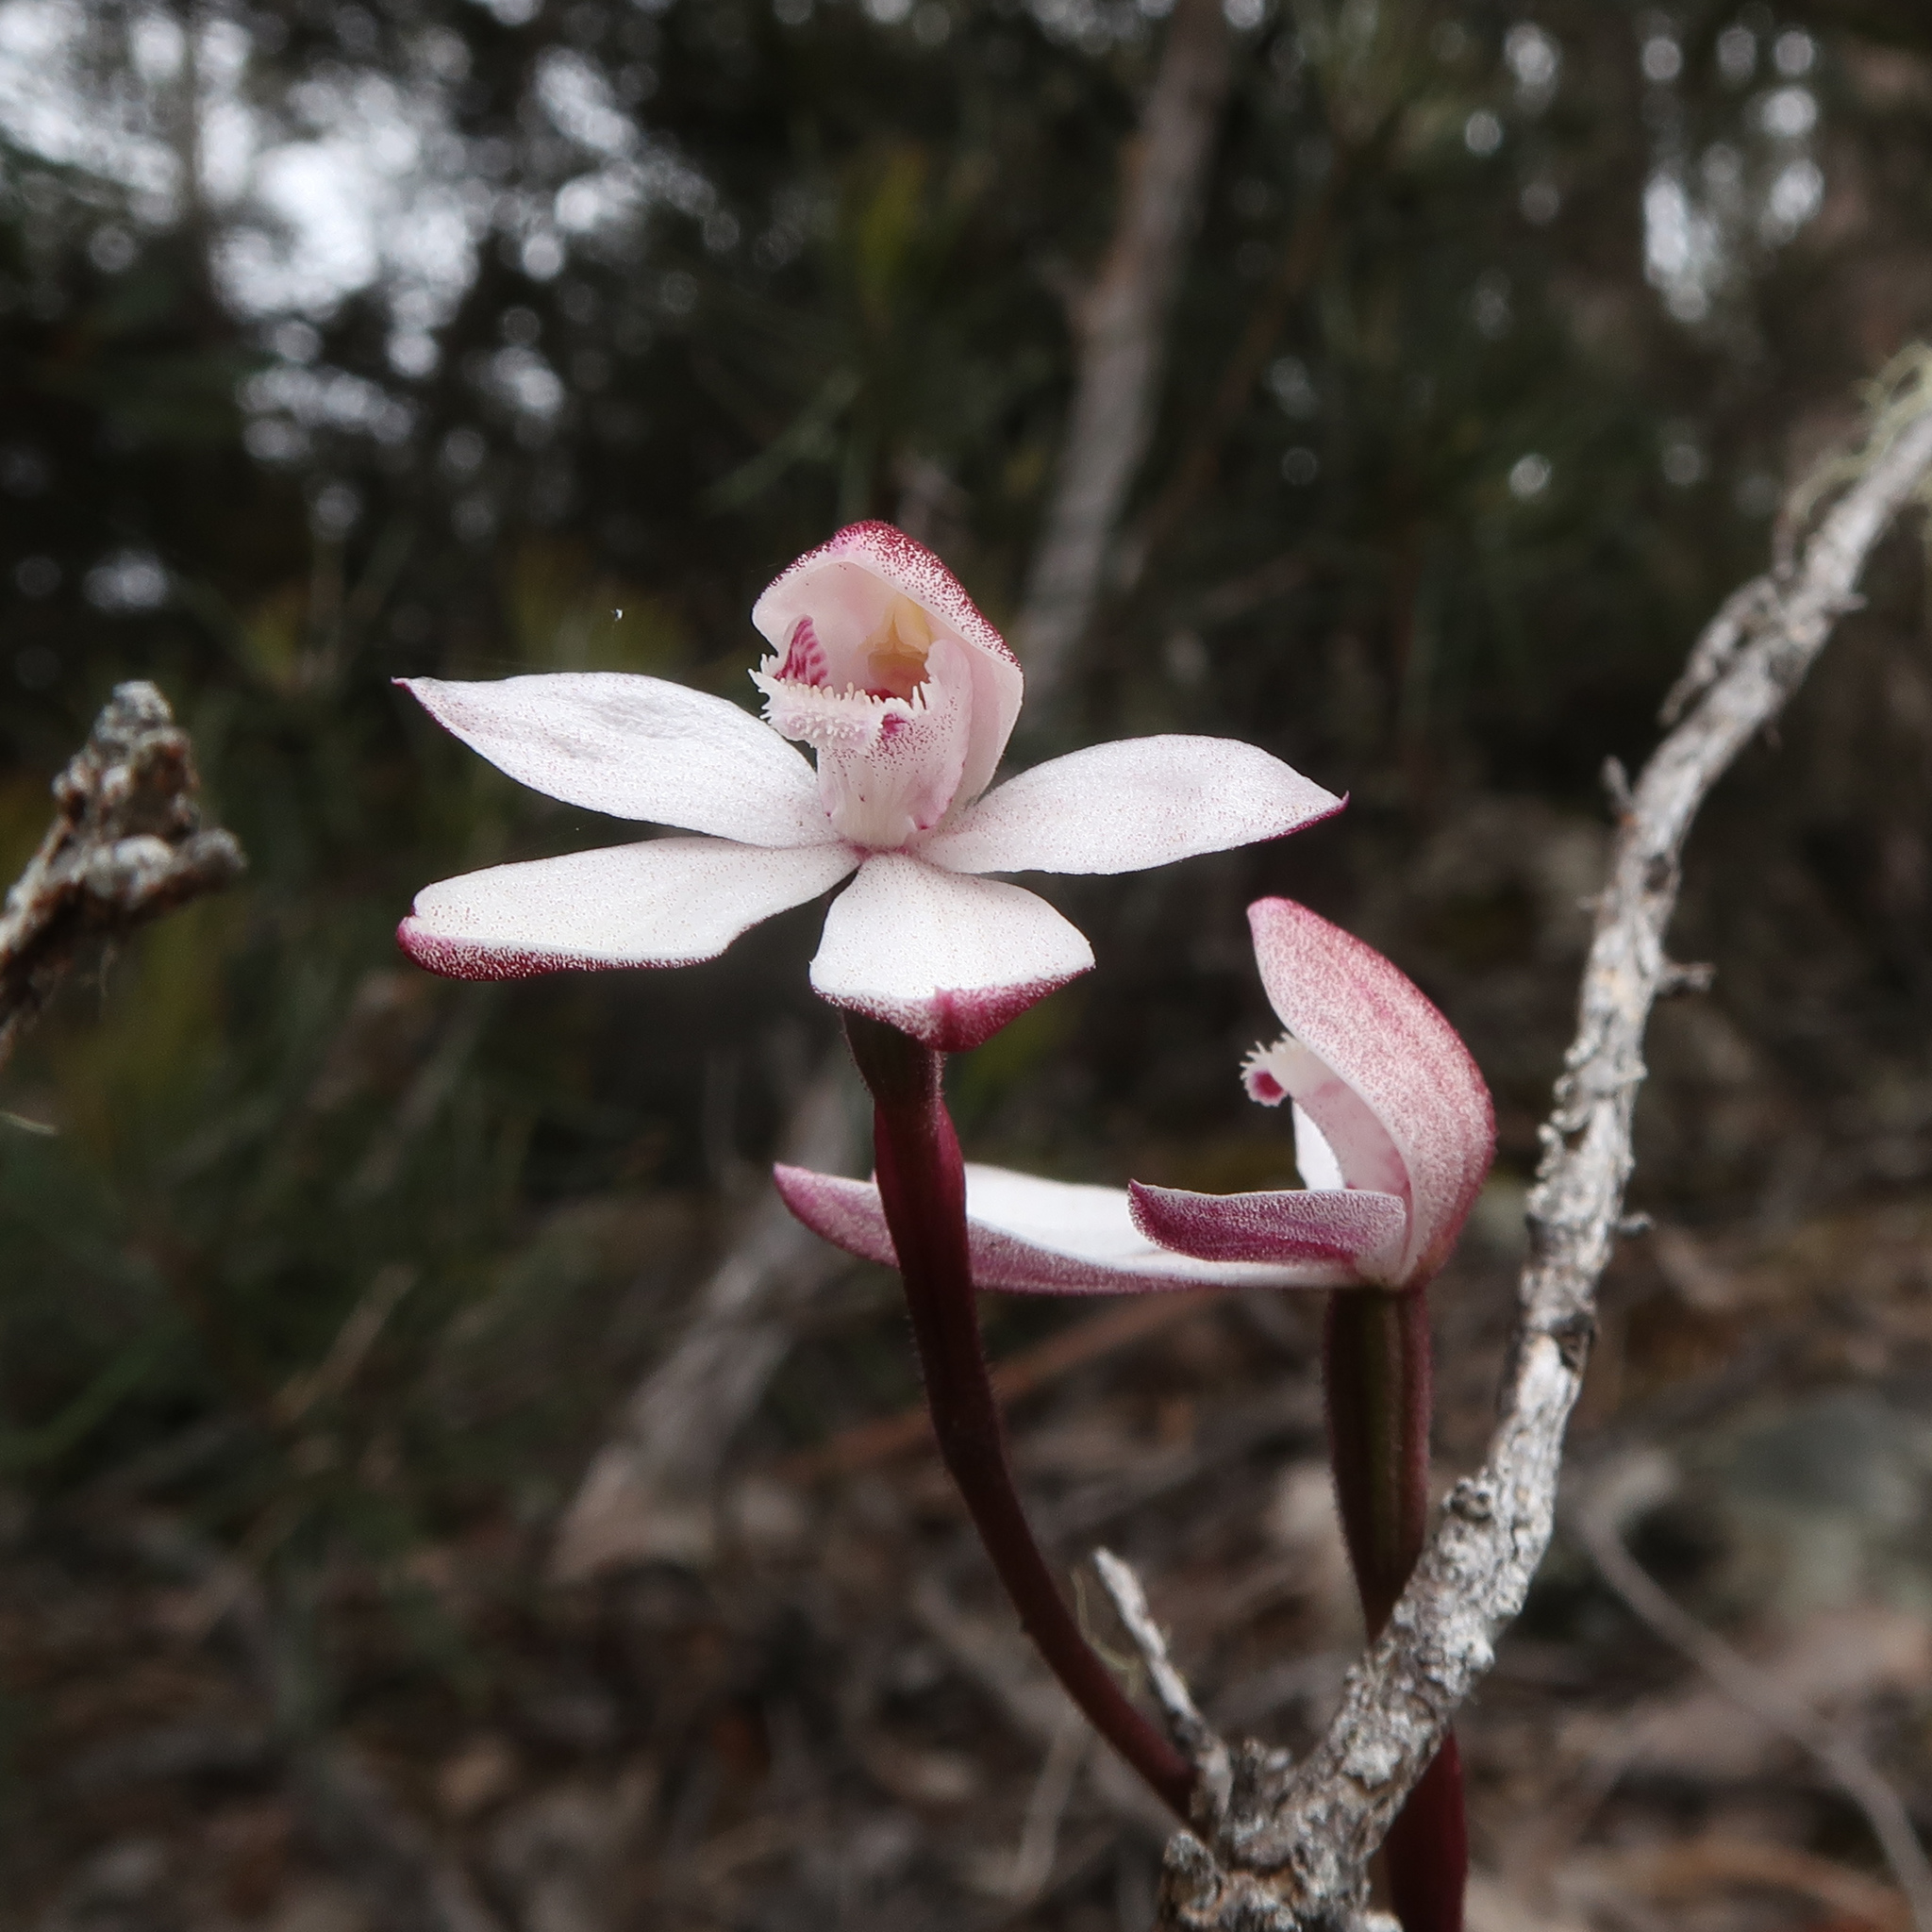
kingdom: Plantae
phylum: Tracheophyta
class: Liliopsida
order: Asparagales
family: Orchidaceae
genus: Caladenia
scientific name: Caladenia alpina
